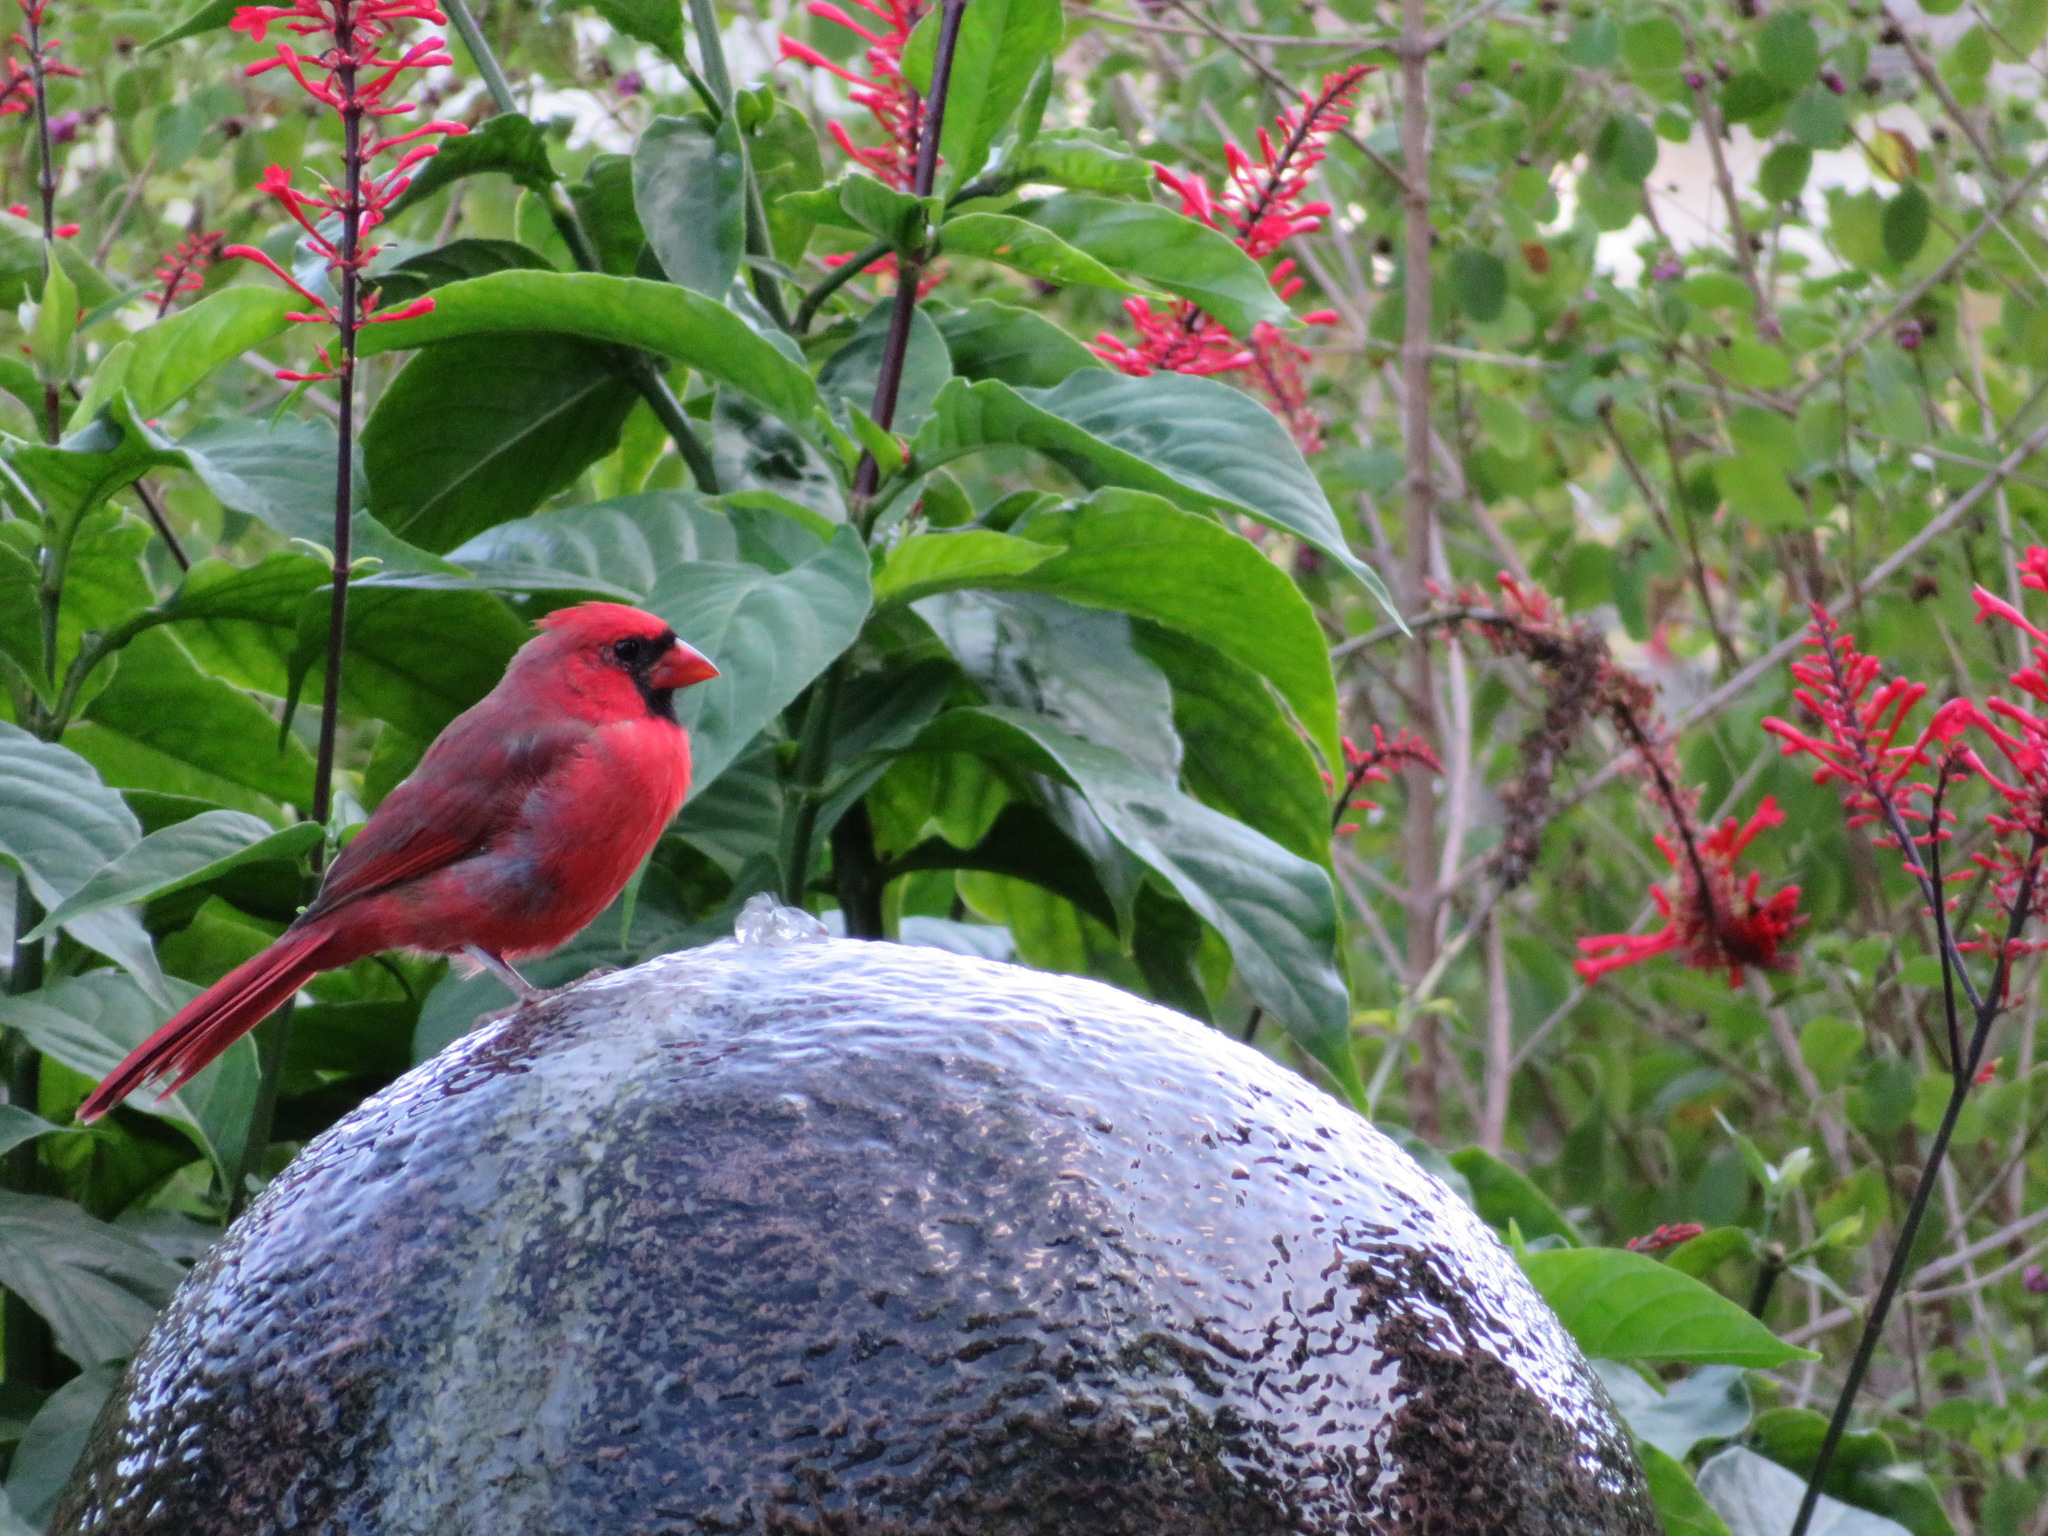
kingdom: Animalia
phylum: Chordata
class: Aves
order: Passeriformes
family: Cardinalidae
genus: Cardinalis
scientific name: Cardinalis cardinalis
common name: Northern cardinal
